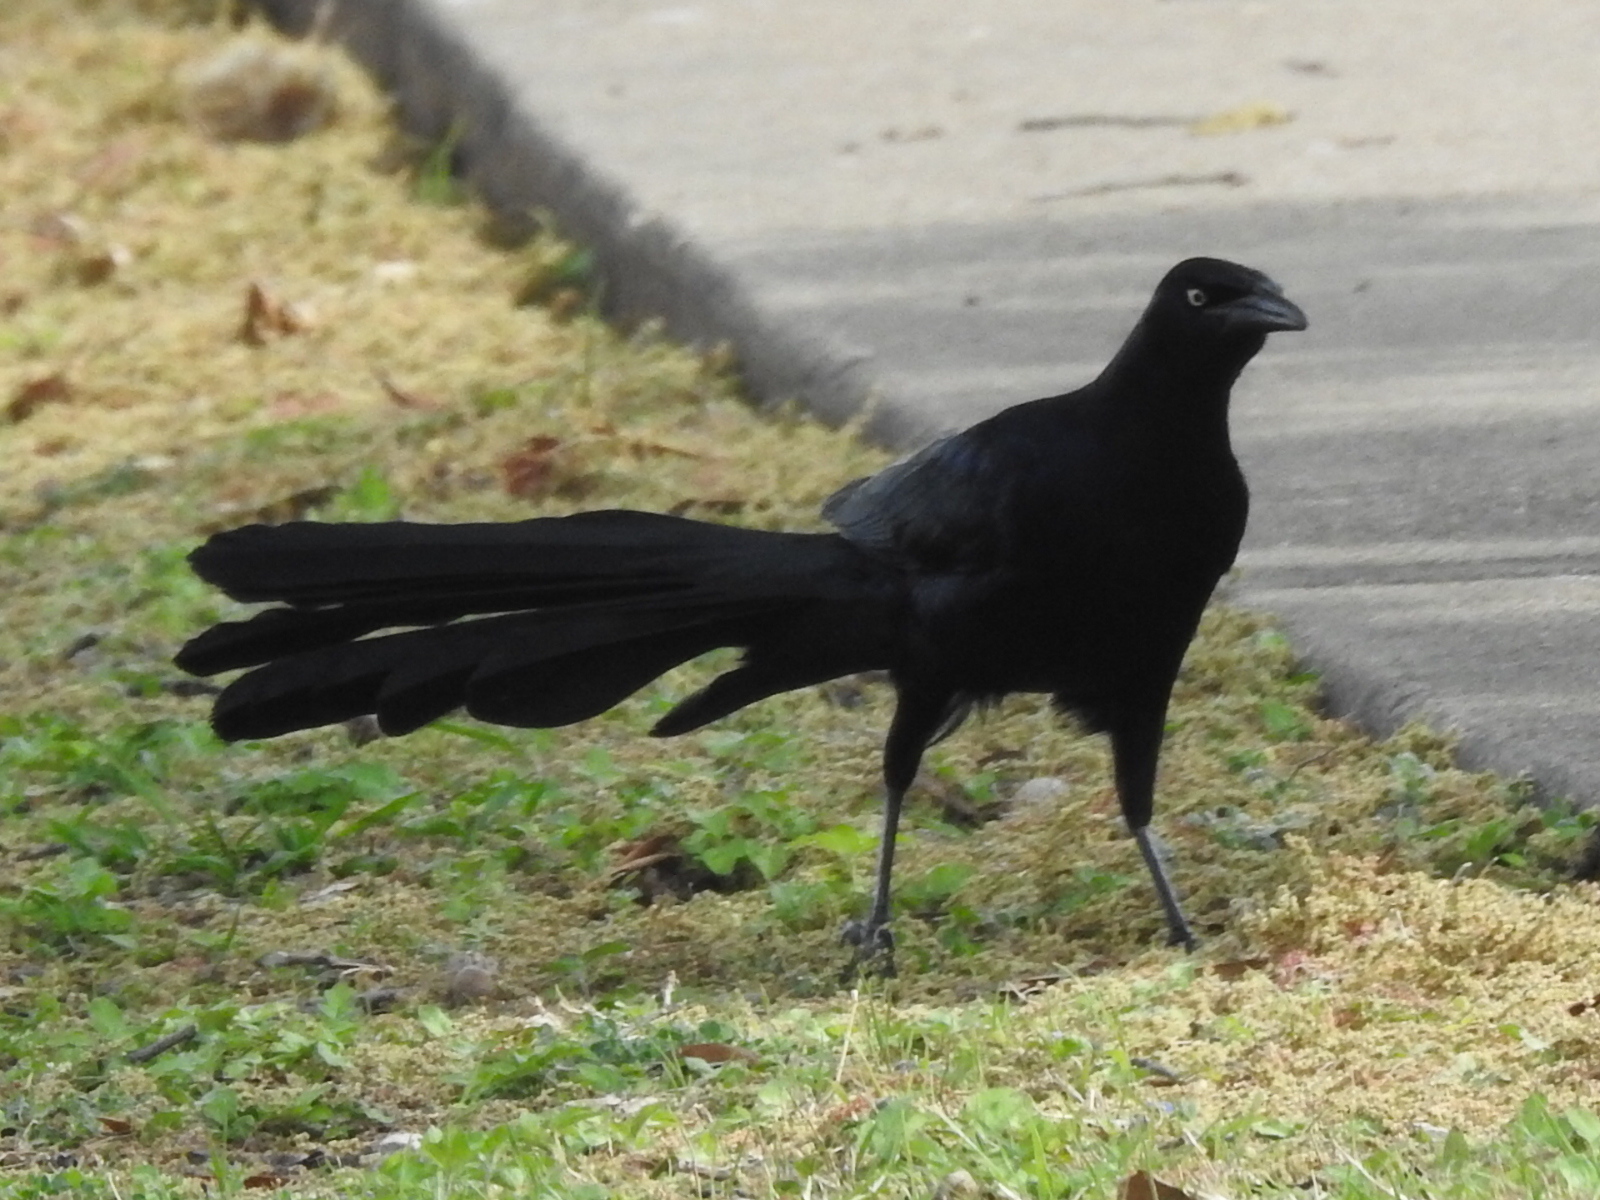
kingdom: Animalia
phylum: Chordata
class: Aves
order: Passeriformes
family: Icteridae
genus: Quiscalus
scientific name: Quiscalus mexicanus
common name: Great-tailed grackle
